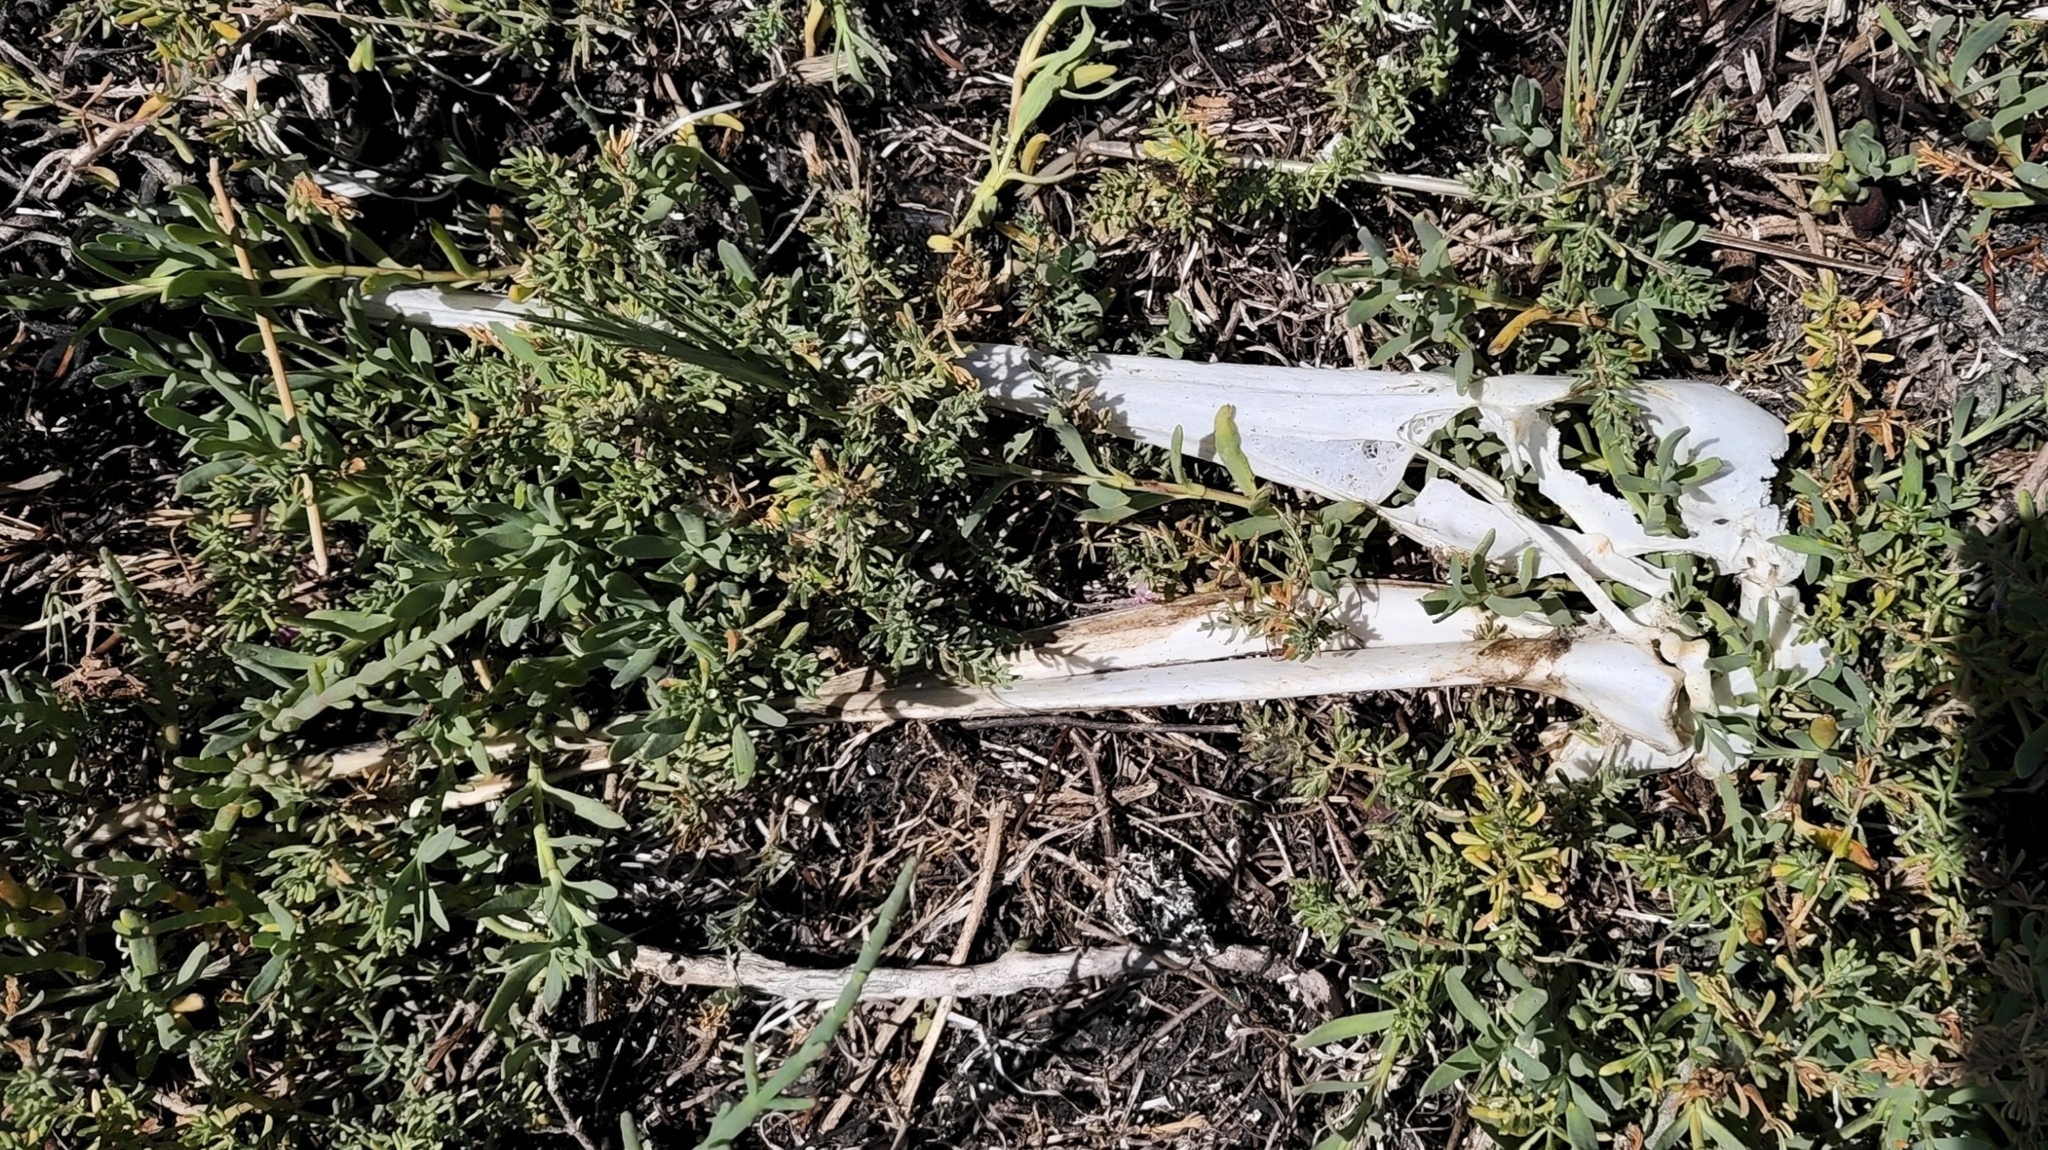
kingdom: Animalia
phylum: Chordata
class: Aves
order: Pelecaniformes
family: Pelecanidae
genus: Pelecanus
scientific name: Pelecanus occidentalis
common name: Brown pelican
